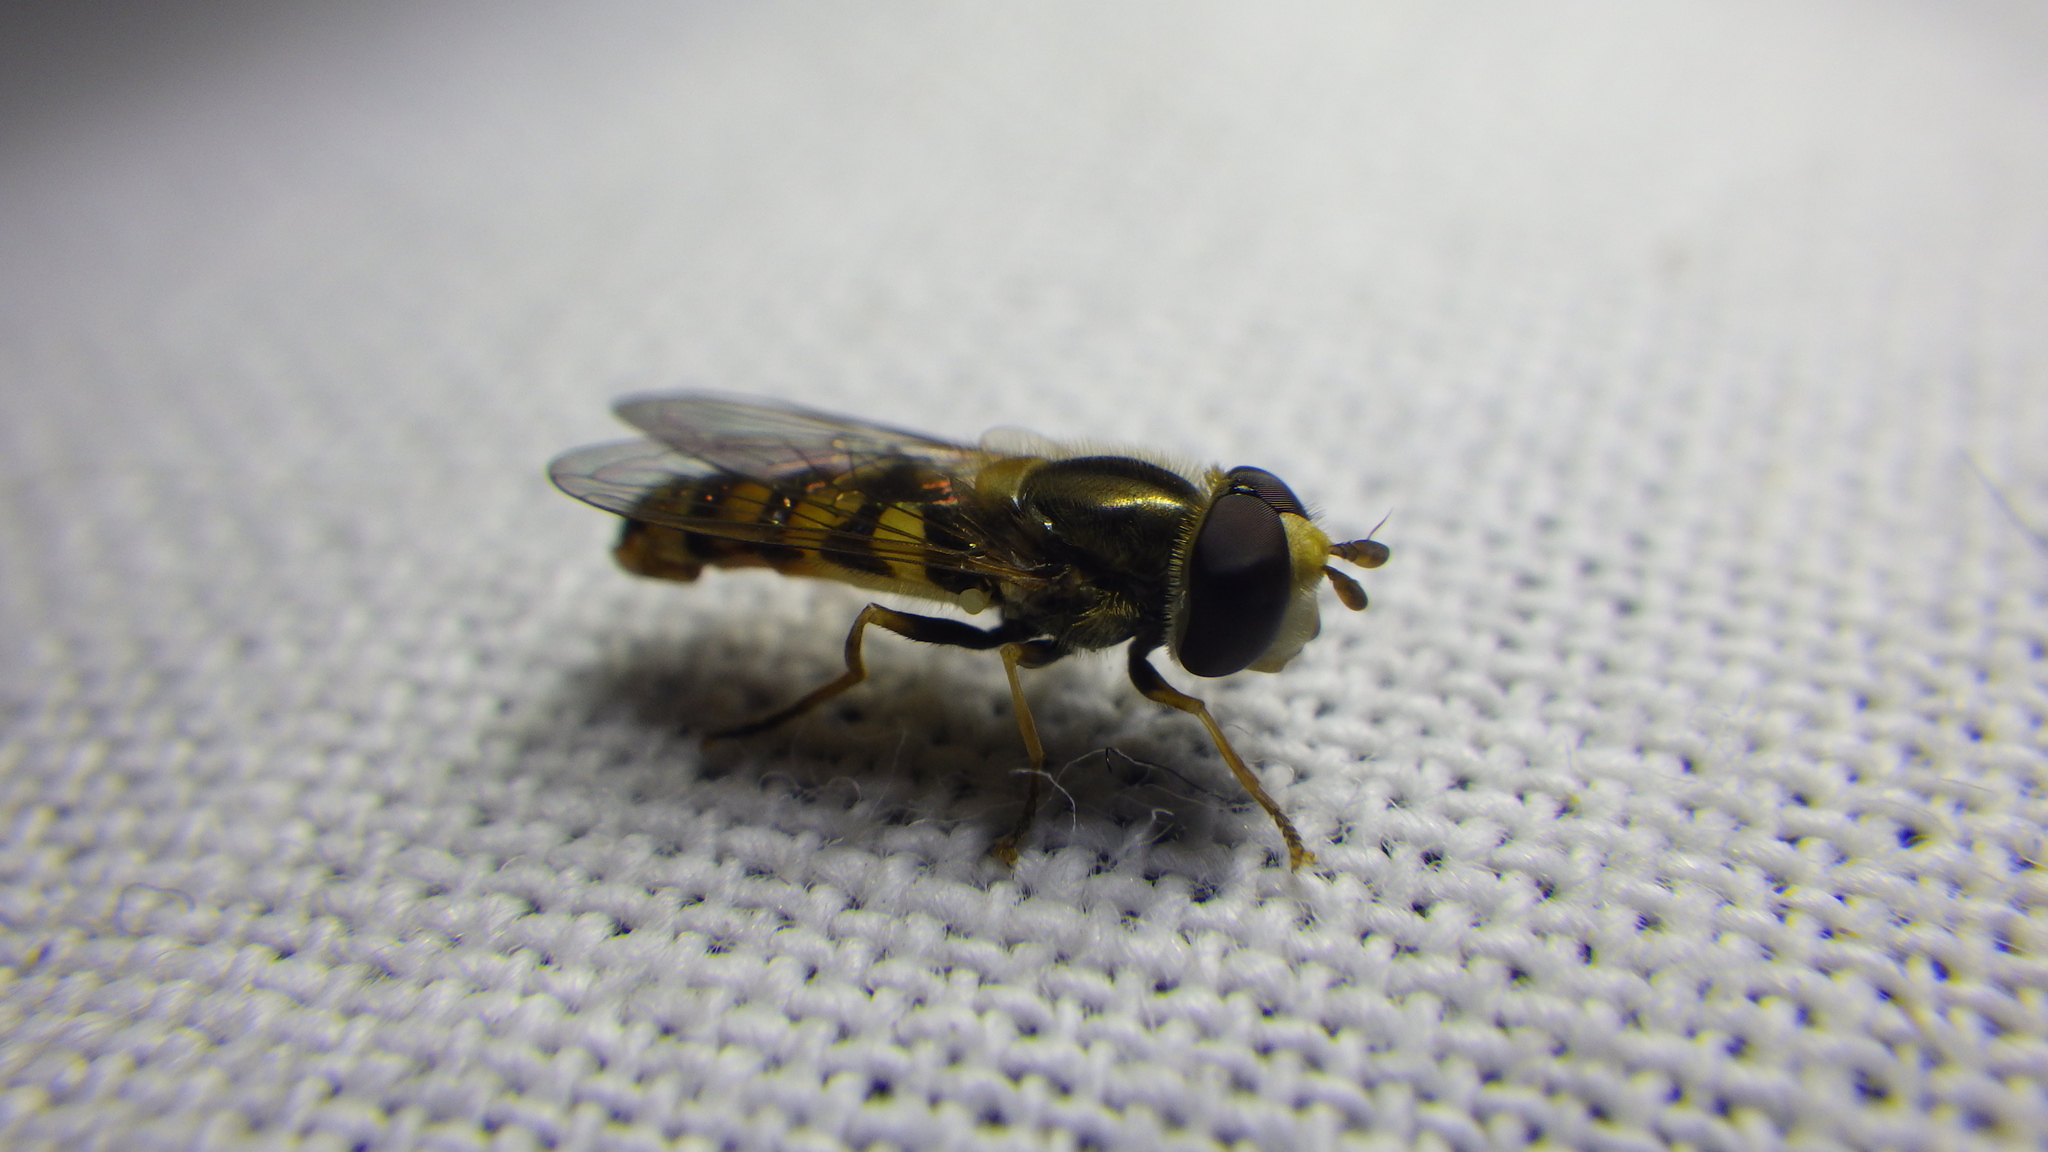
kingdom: Animalia
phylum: Arthropoda
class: Insecta
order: Diptera
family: Syrphidae
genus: Eupeodes
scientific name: Eupeodes corollae
